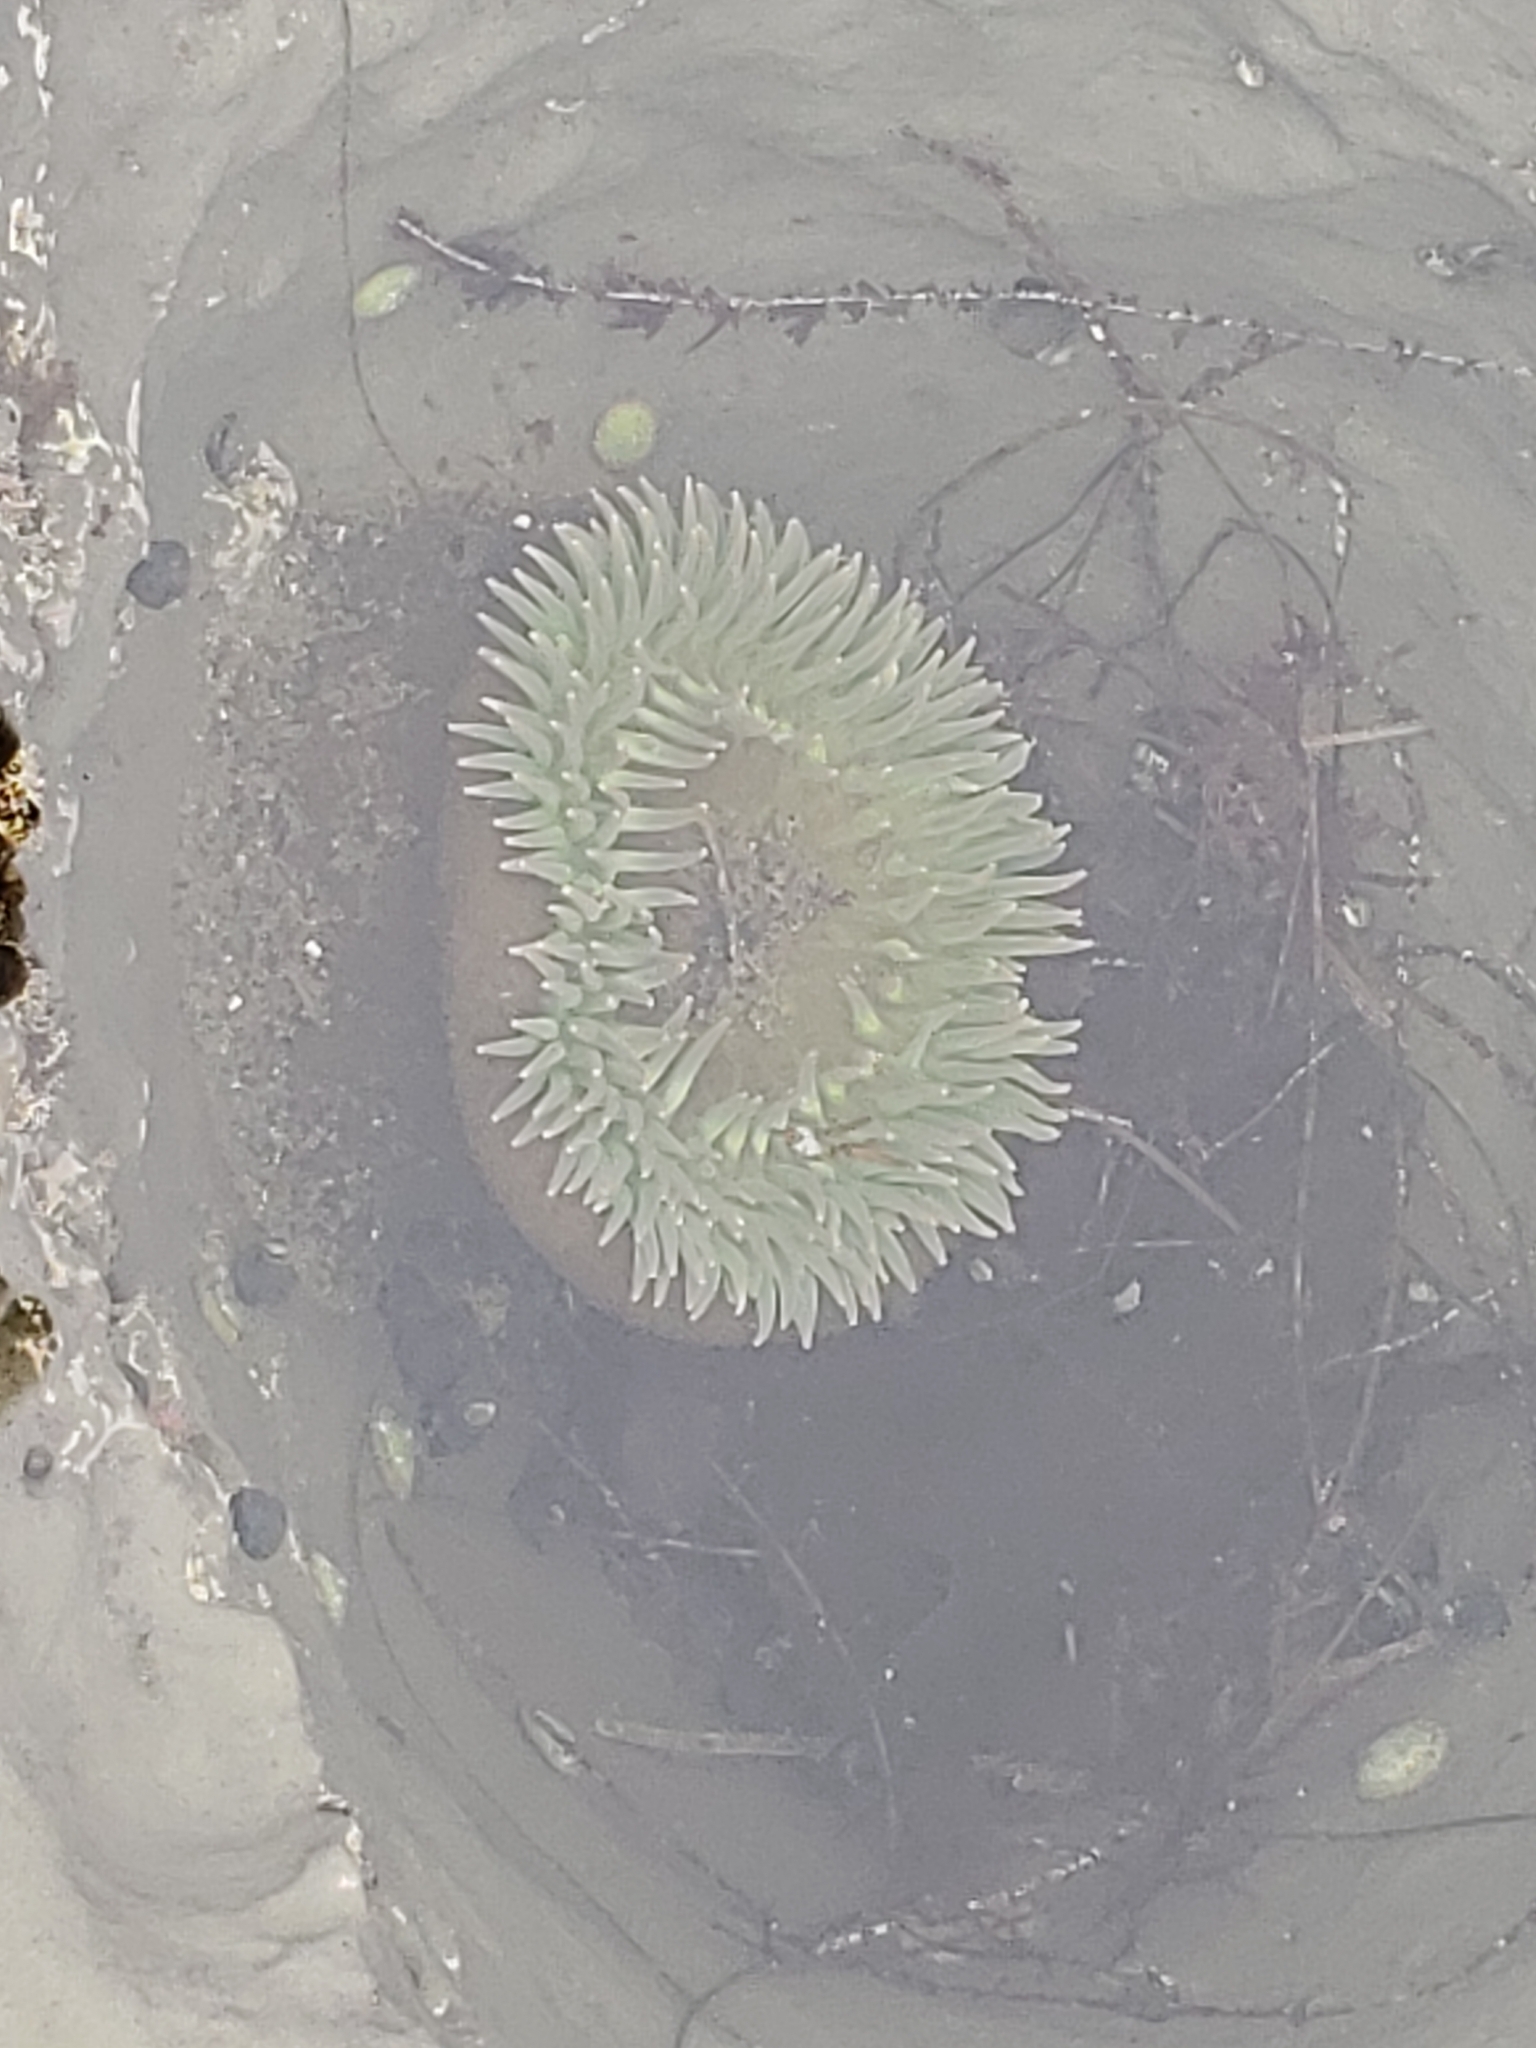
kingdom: Animalia
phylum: Cnidaria
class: Anthozoa
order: Actiniaria
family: Actiniidae
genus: Anthopleura
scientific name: Anthopleura xanthogrammica
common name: Giant green anemone
